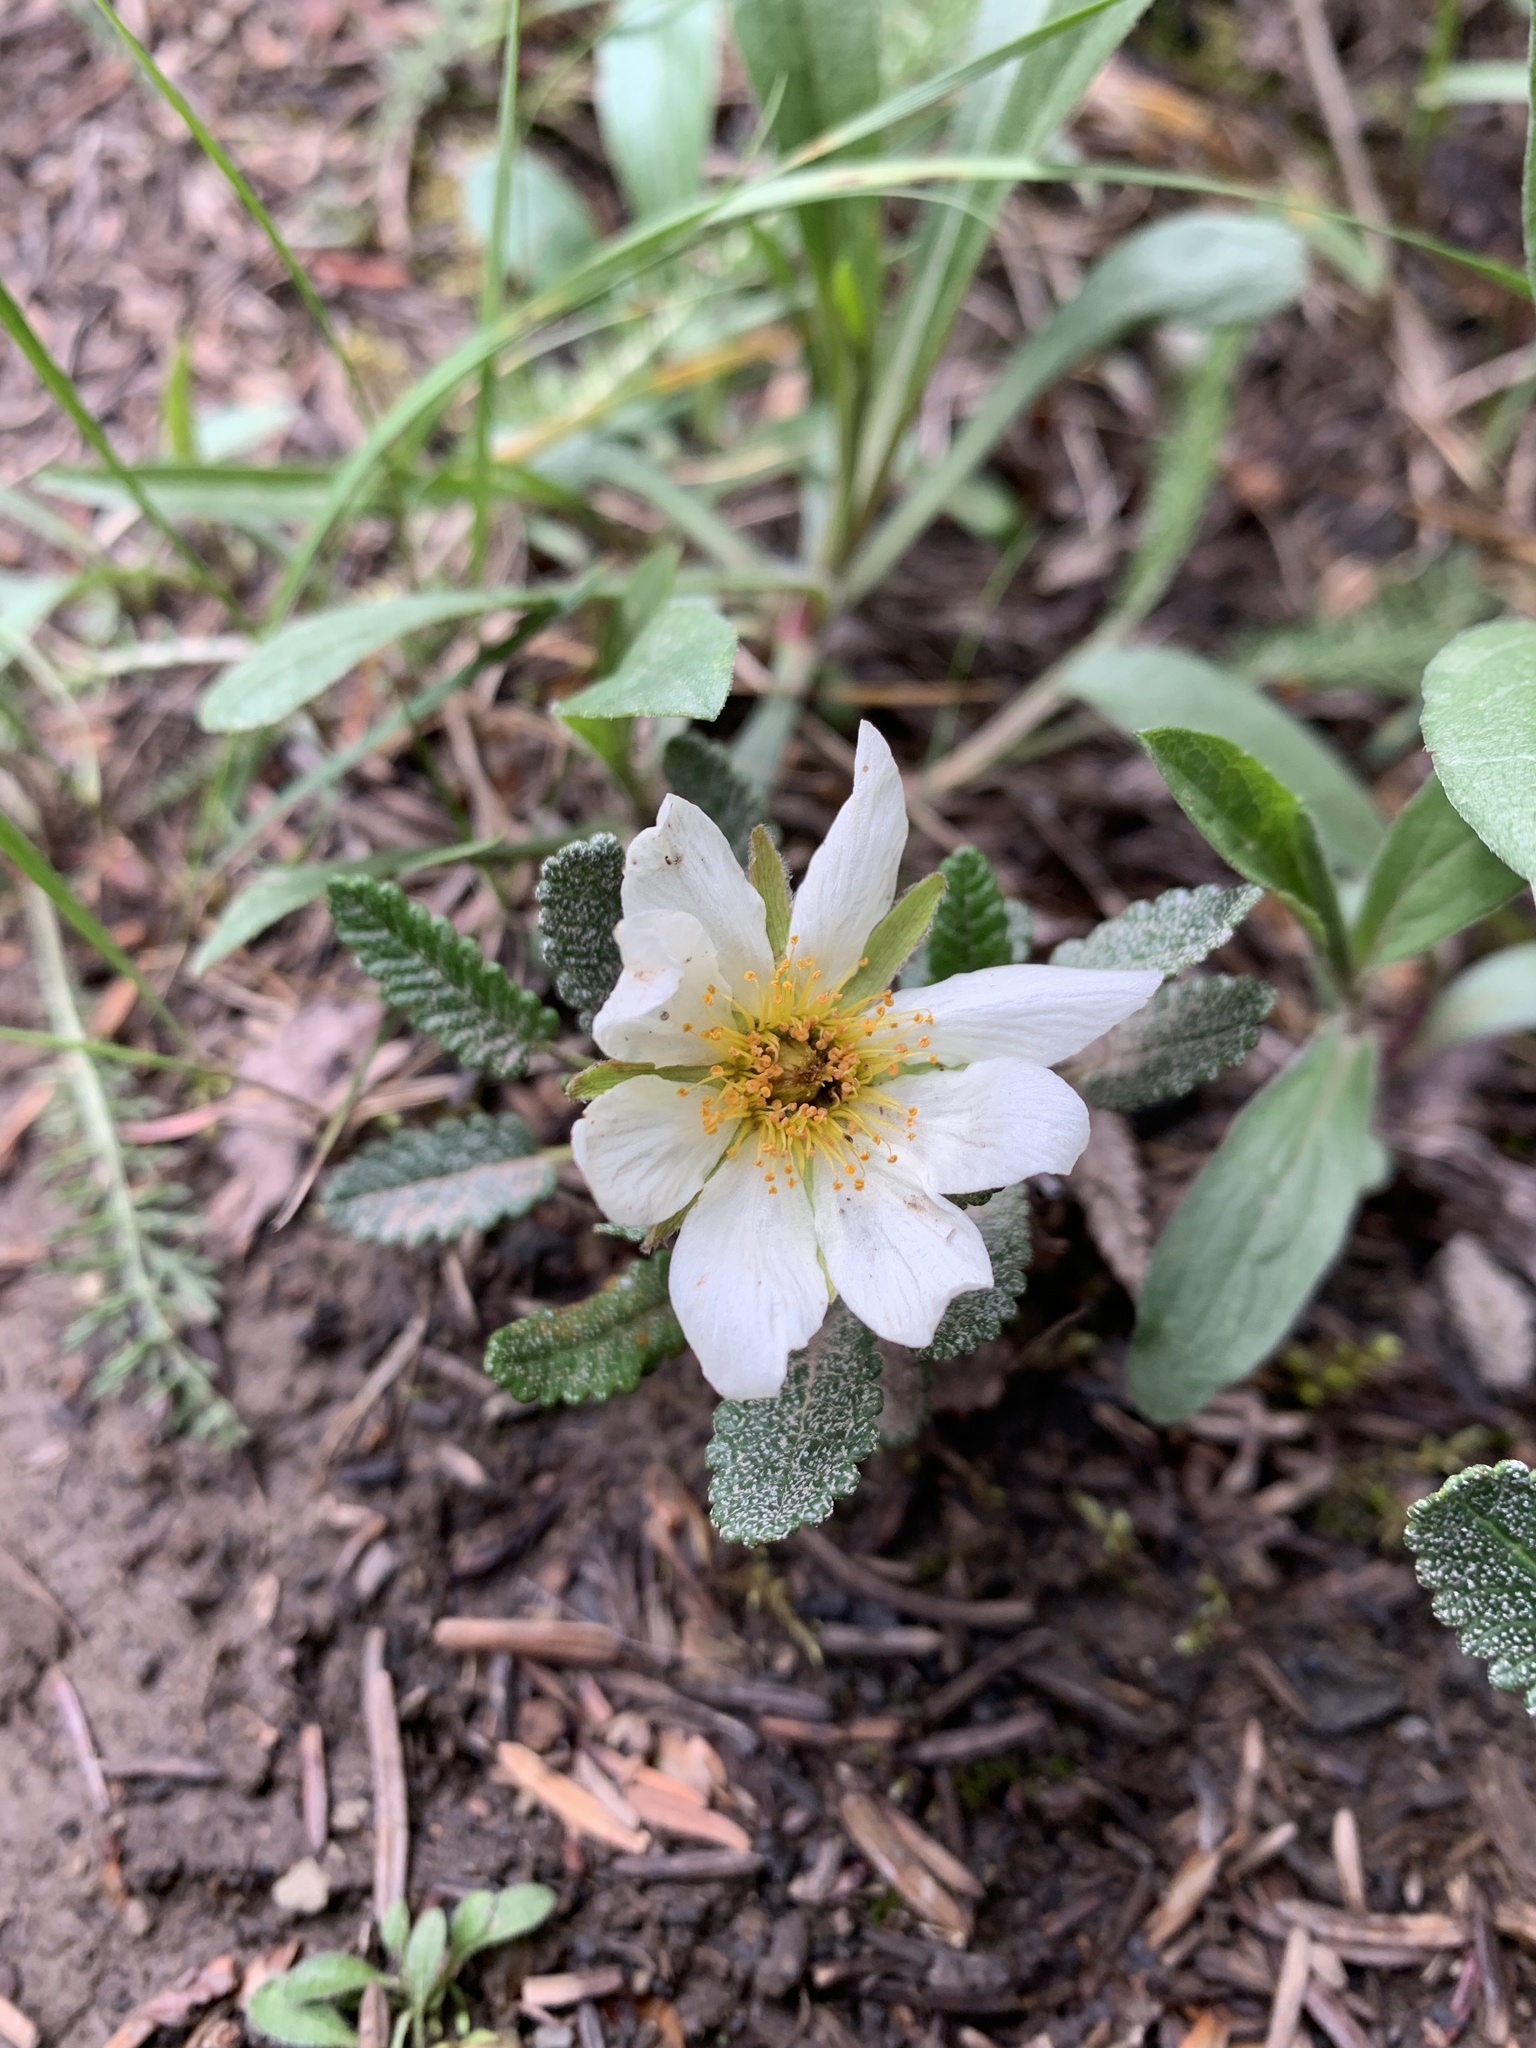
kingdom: Plantae
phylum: Tracheophyta
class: Magnoliopsida
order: Rosales
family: Rosaceae
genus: Dryas
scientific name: Dryas octopetala
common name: Eight-petal mountain-avens
